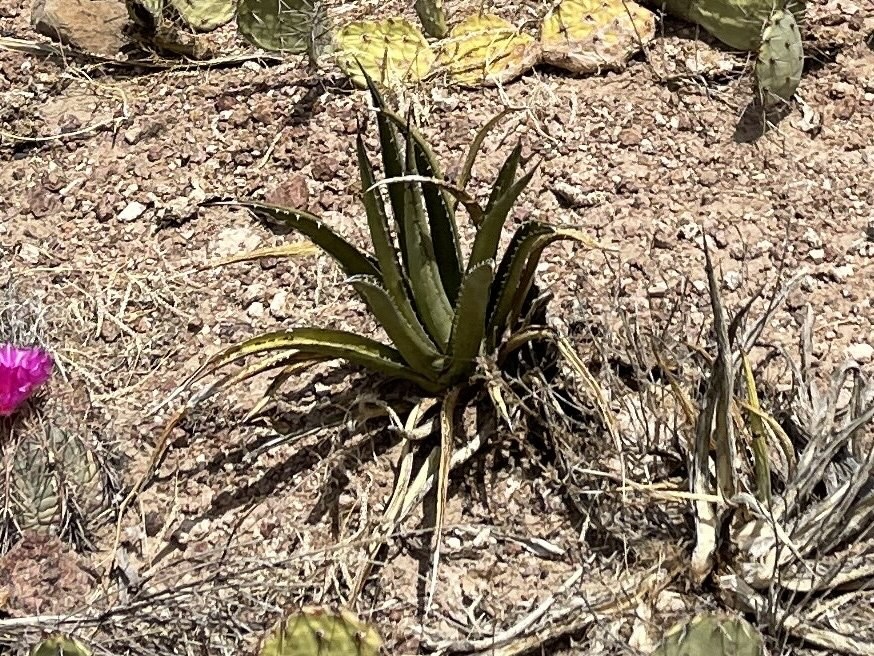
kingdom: Plantae
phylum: Tracheophyta
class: Liliopsida
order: Asparagales
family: Asparagaceae
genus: Agave
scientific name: Agave lechuguilla
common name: Lecheguilla agave
